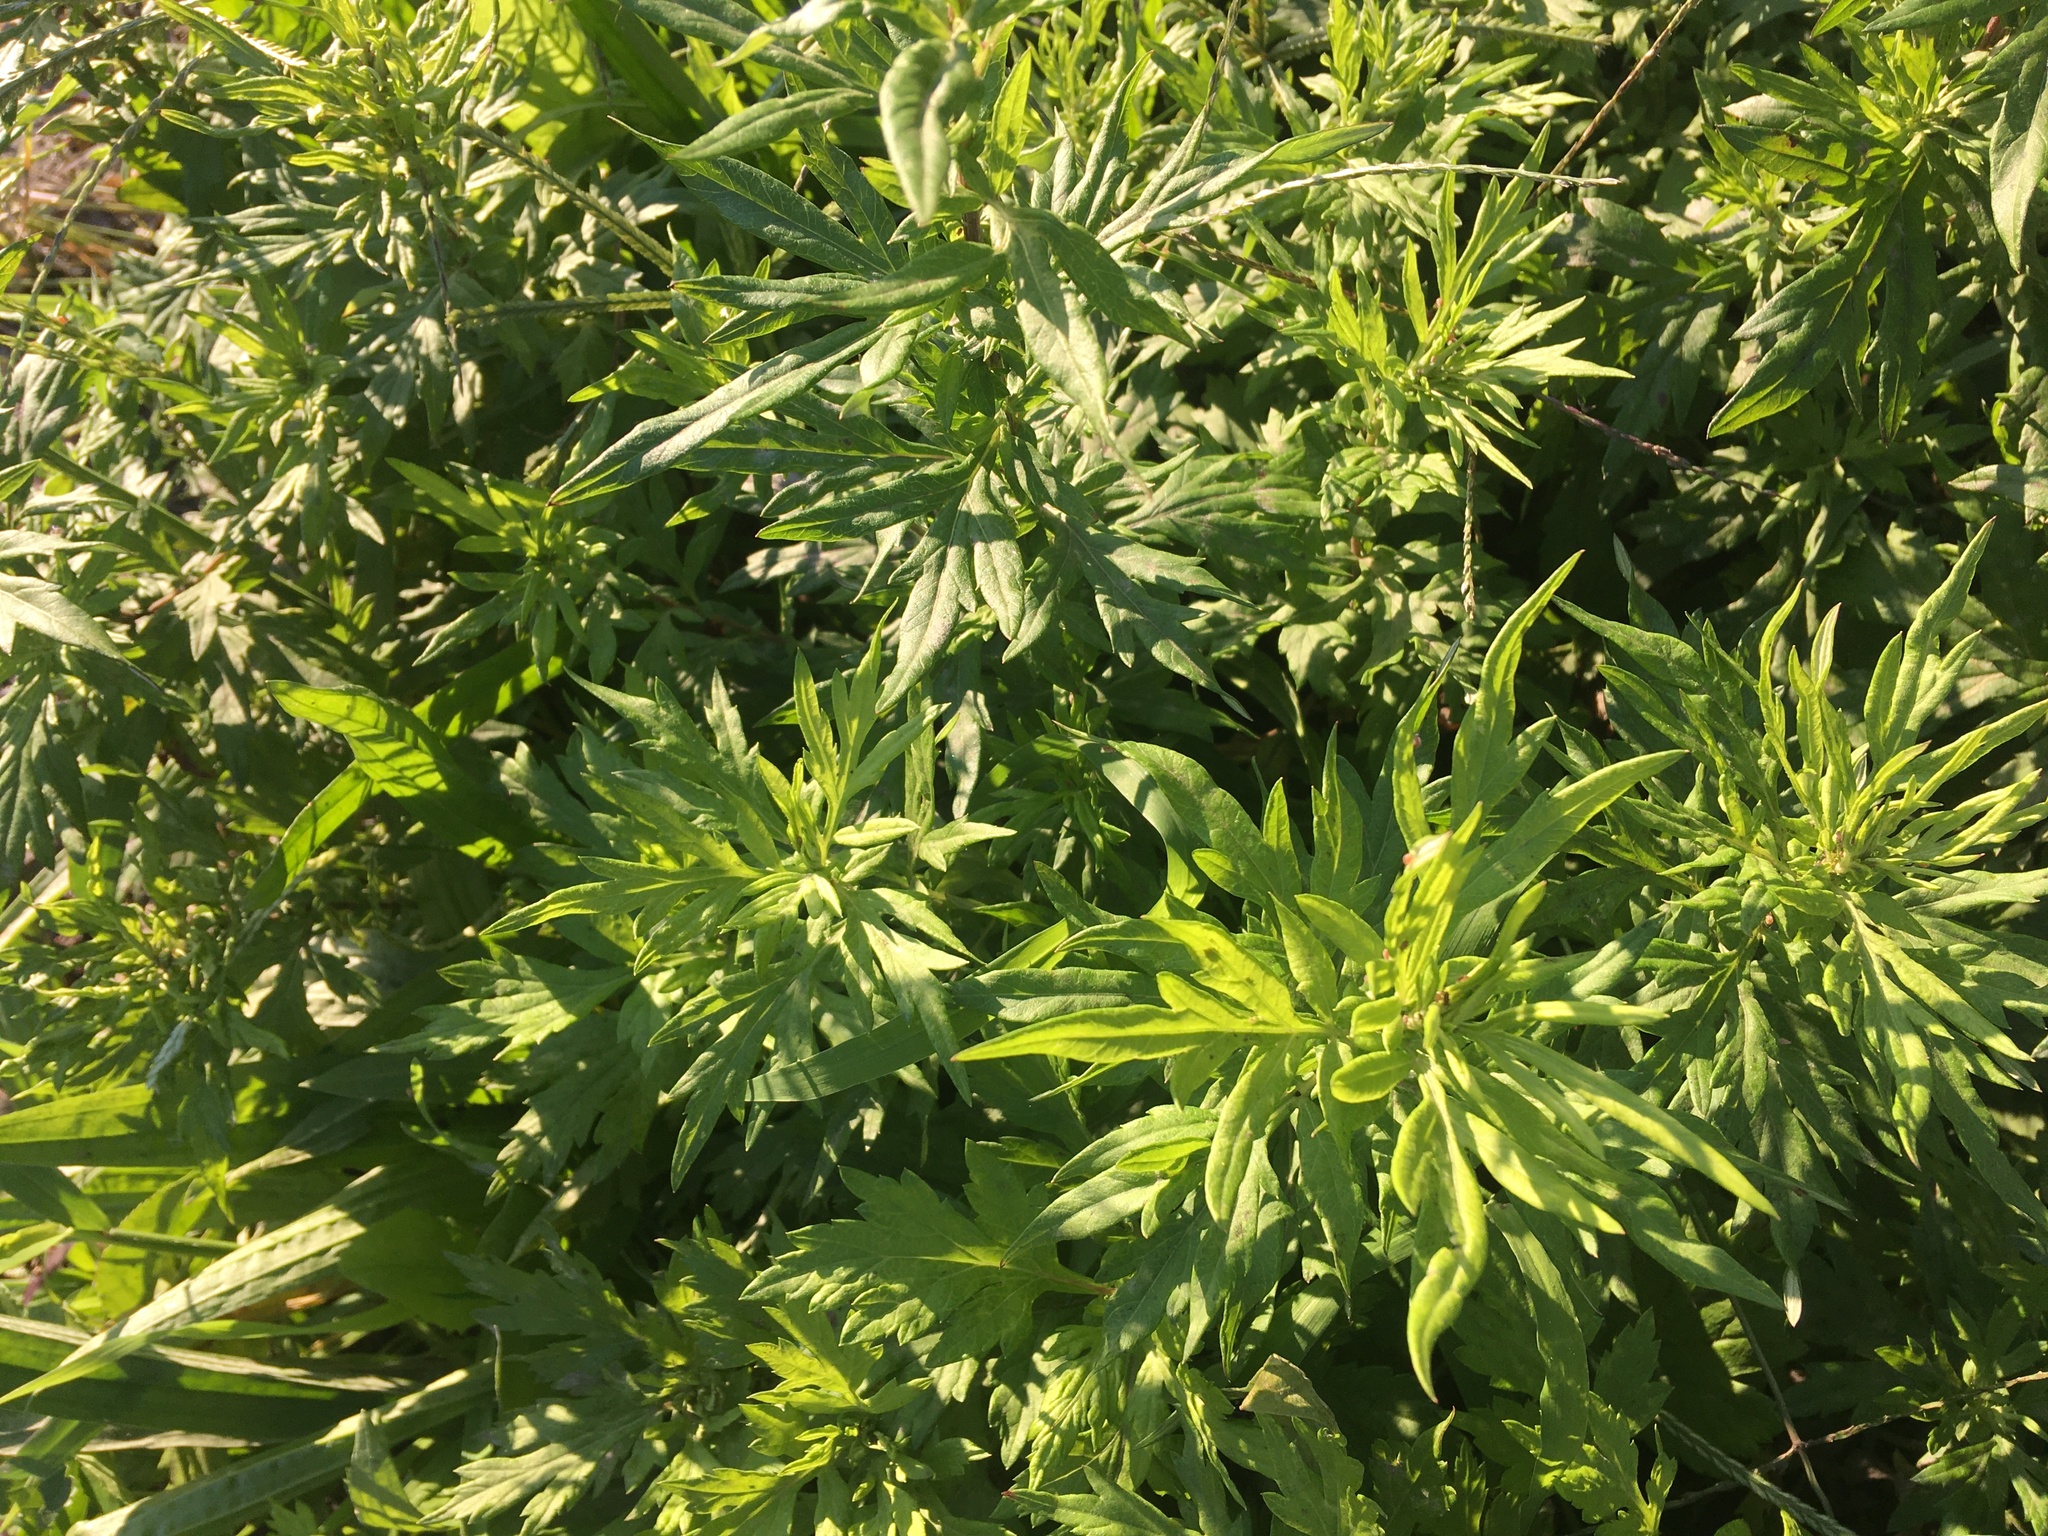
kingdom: Plantae
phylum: Tracheophyta
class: Magnoliopsida
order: Asterales
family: Asteraceae
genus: Artemisia
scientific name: Artemisia vulgaris
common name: Mugwort
